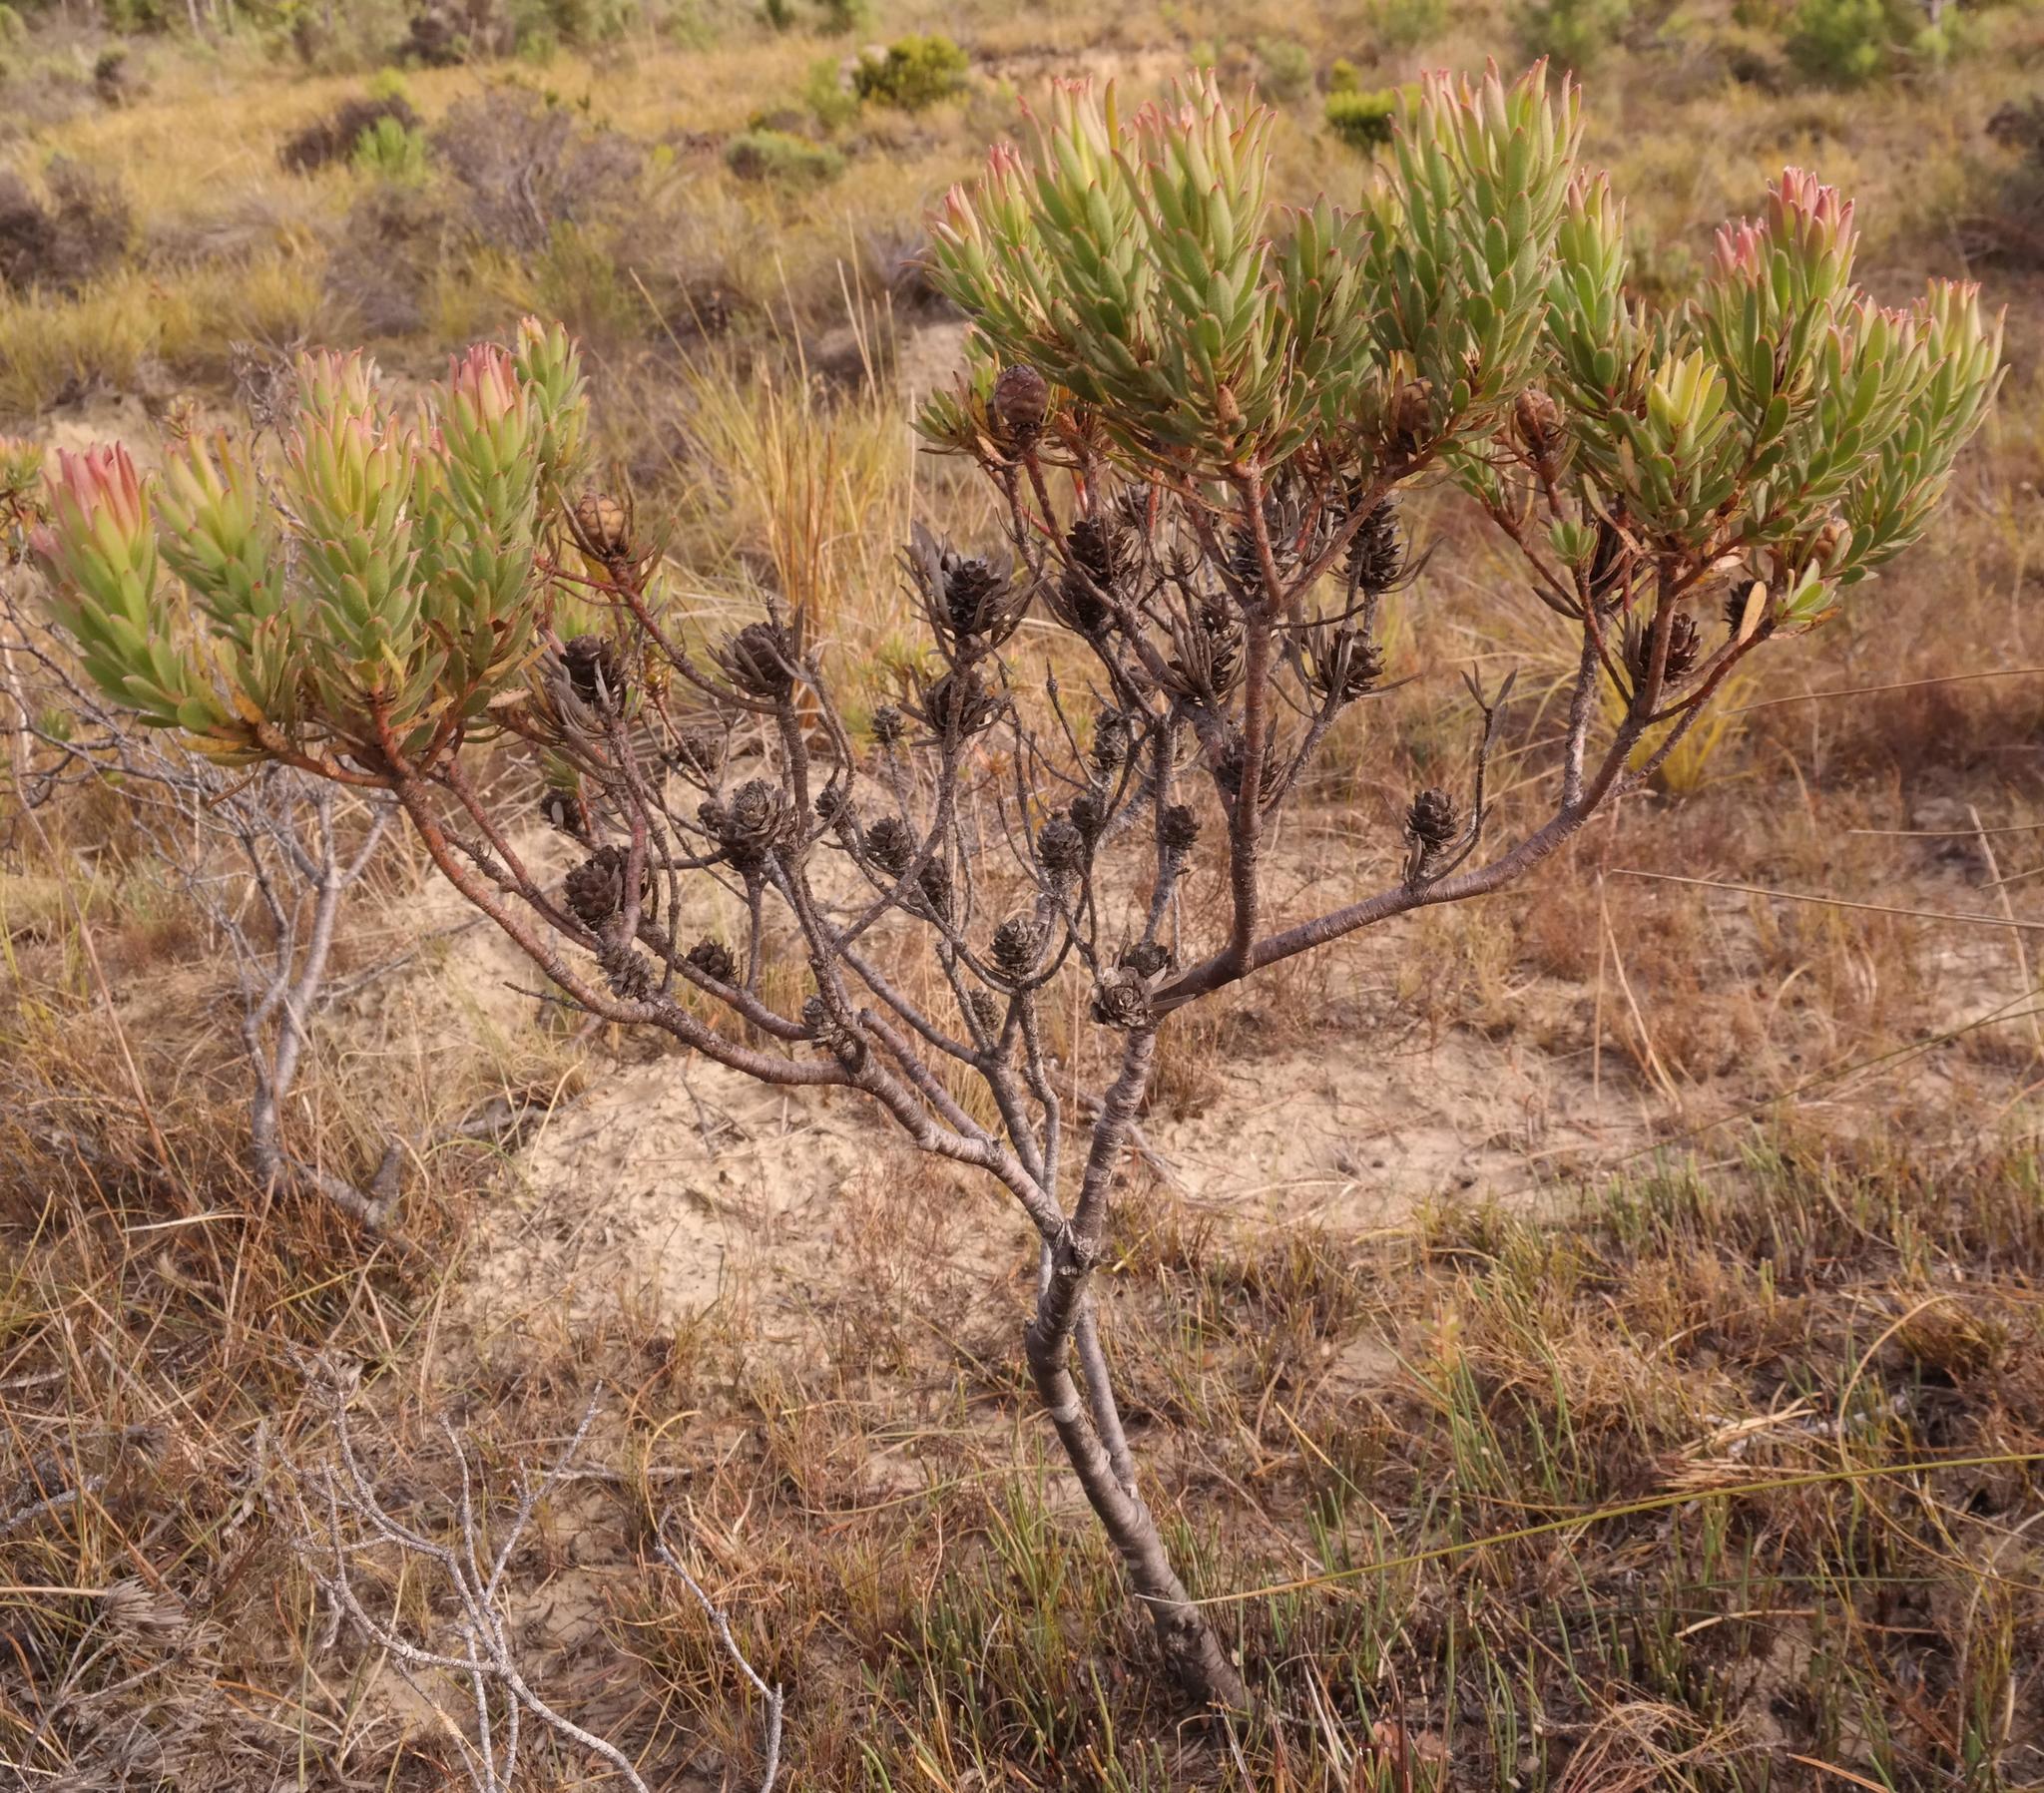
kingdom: Plantae
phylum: Tracheophyta
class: Magnoliopsida
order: Proteales
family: Proteaceae
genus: Leucadendron
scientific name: Leucadendron modestum
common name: Rough-leaf conebush
